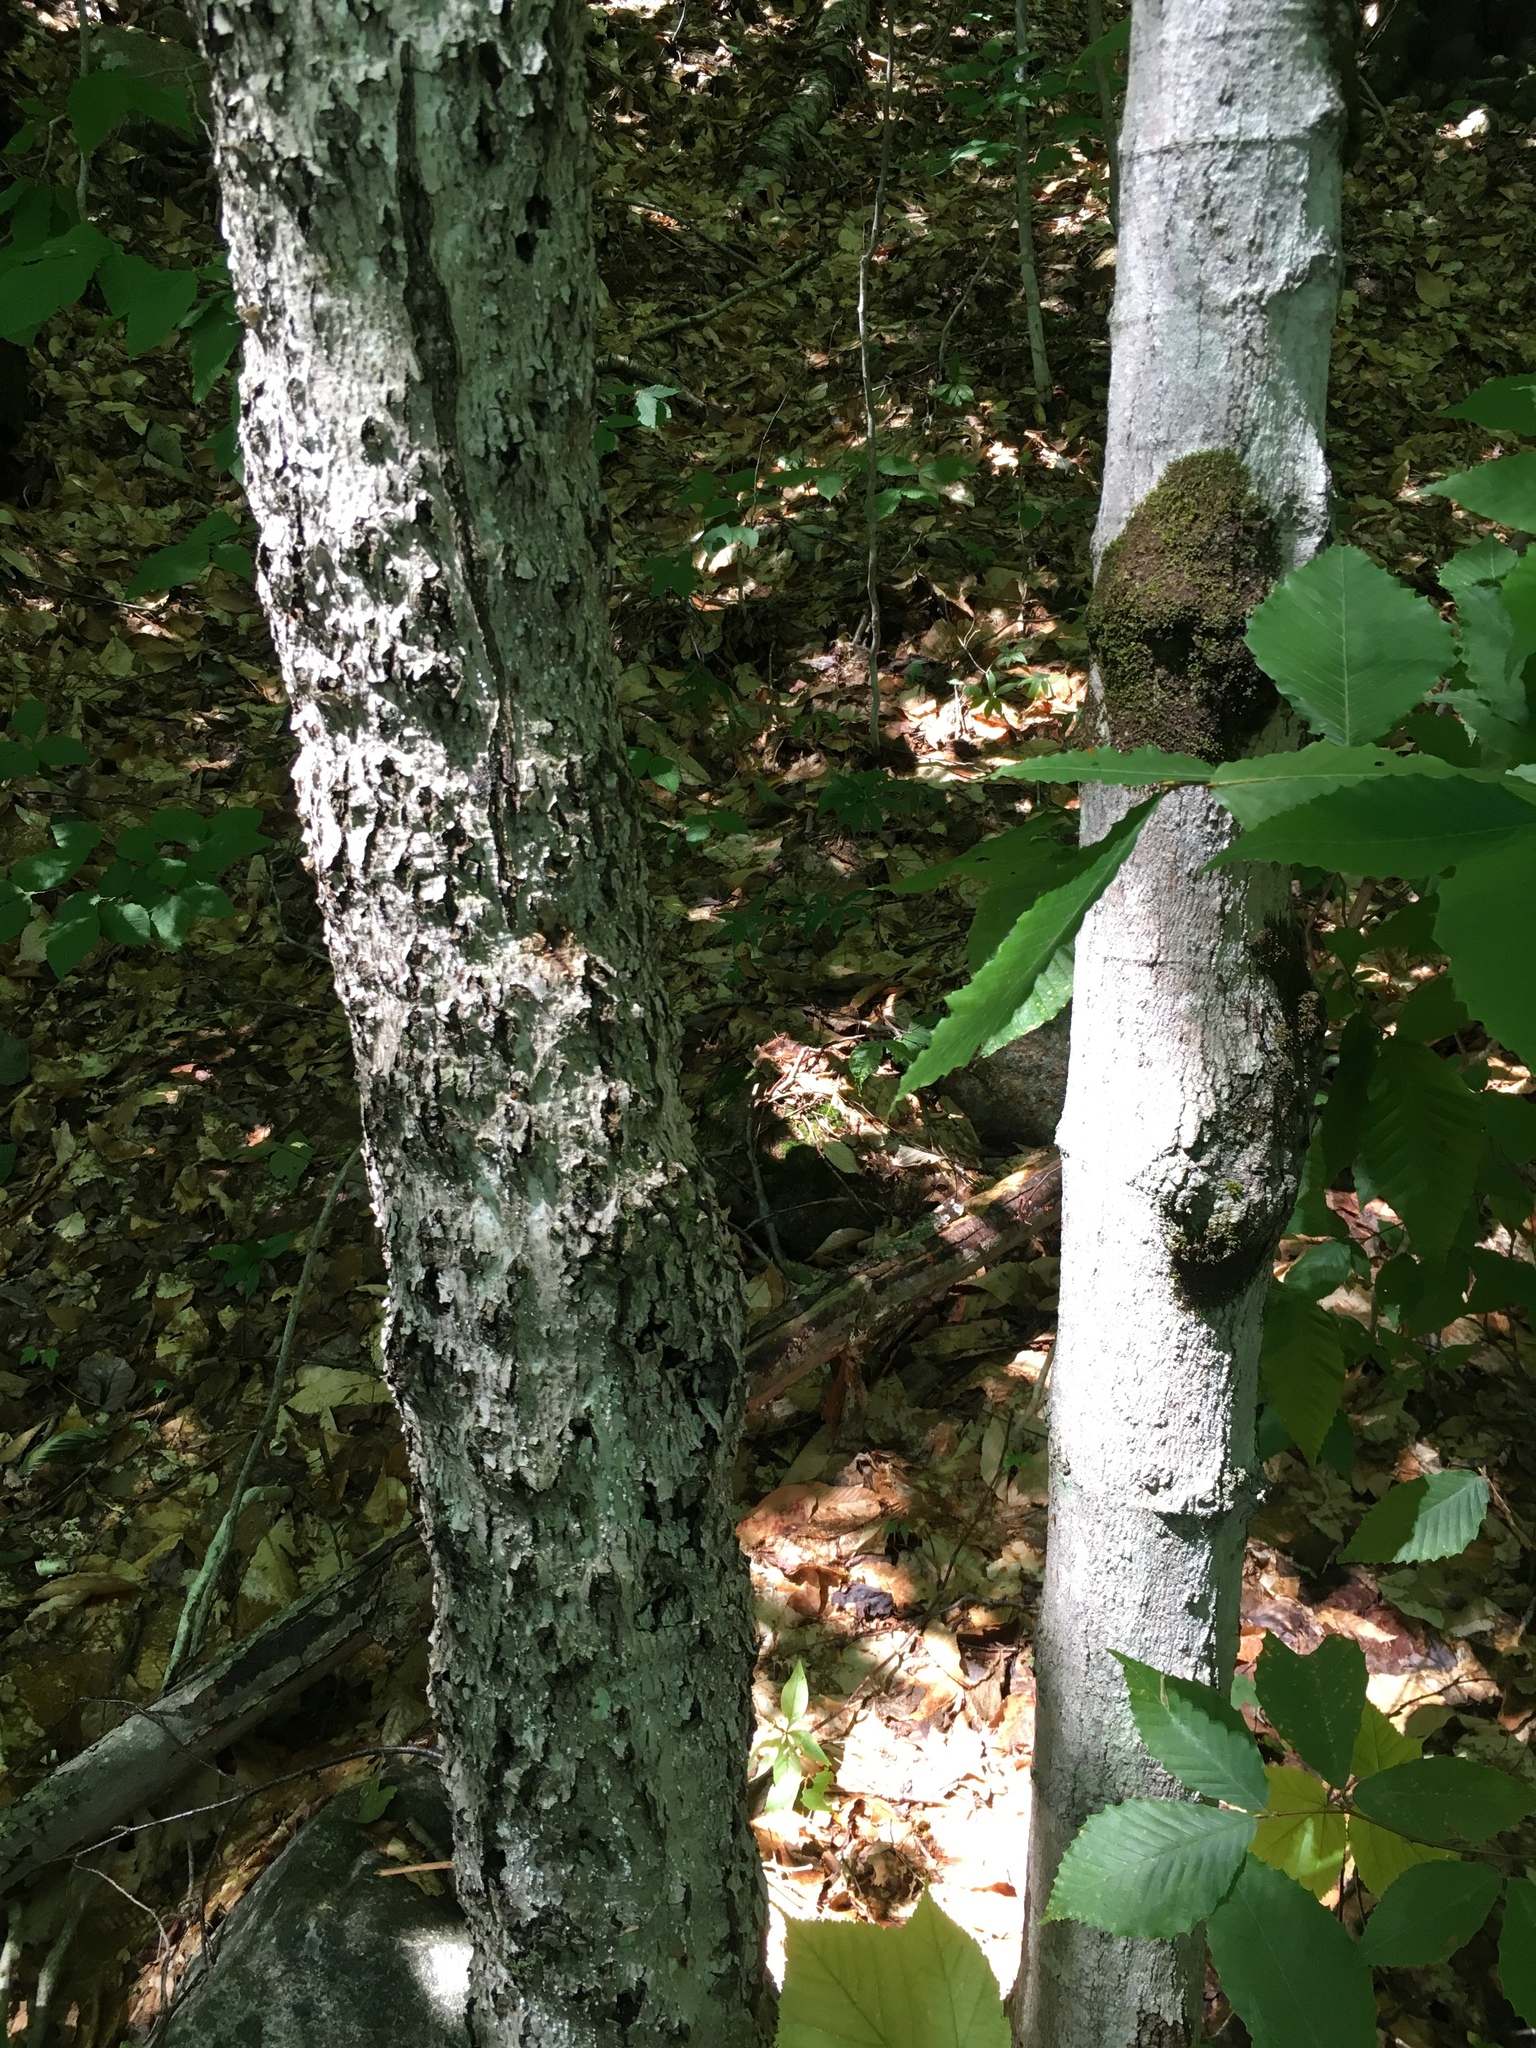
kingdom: Animalia
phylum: Arthropoda
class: Insecta
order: Hemiptera
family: Eriococcidae
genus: Cryptococcus
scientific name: Cryptococcus fagisuga
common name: Beech scale
